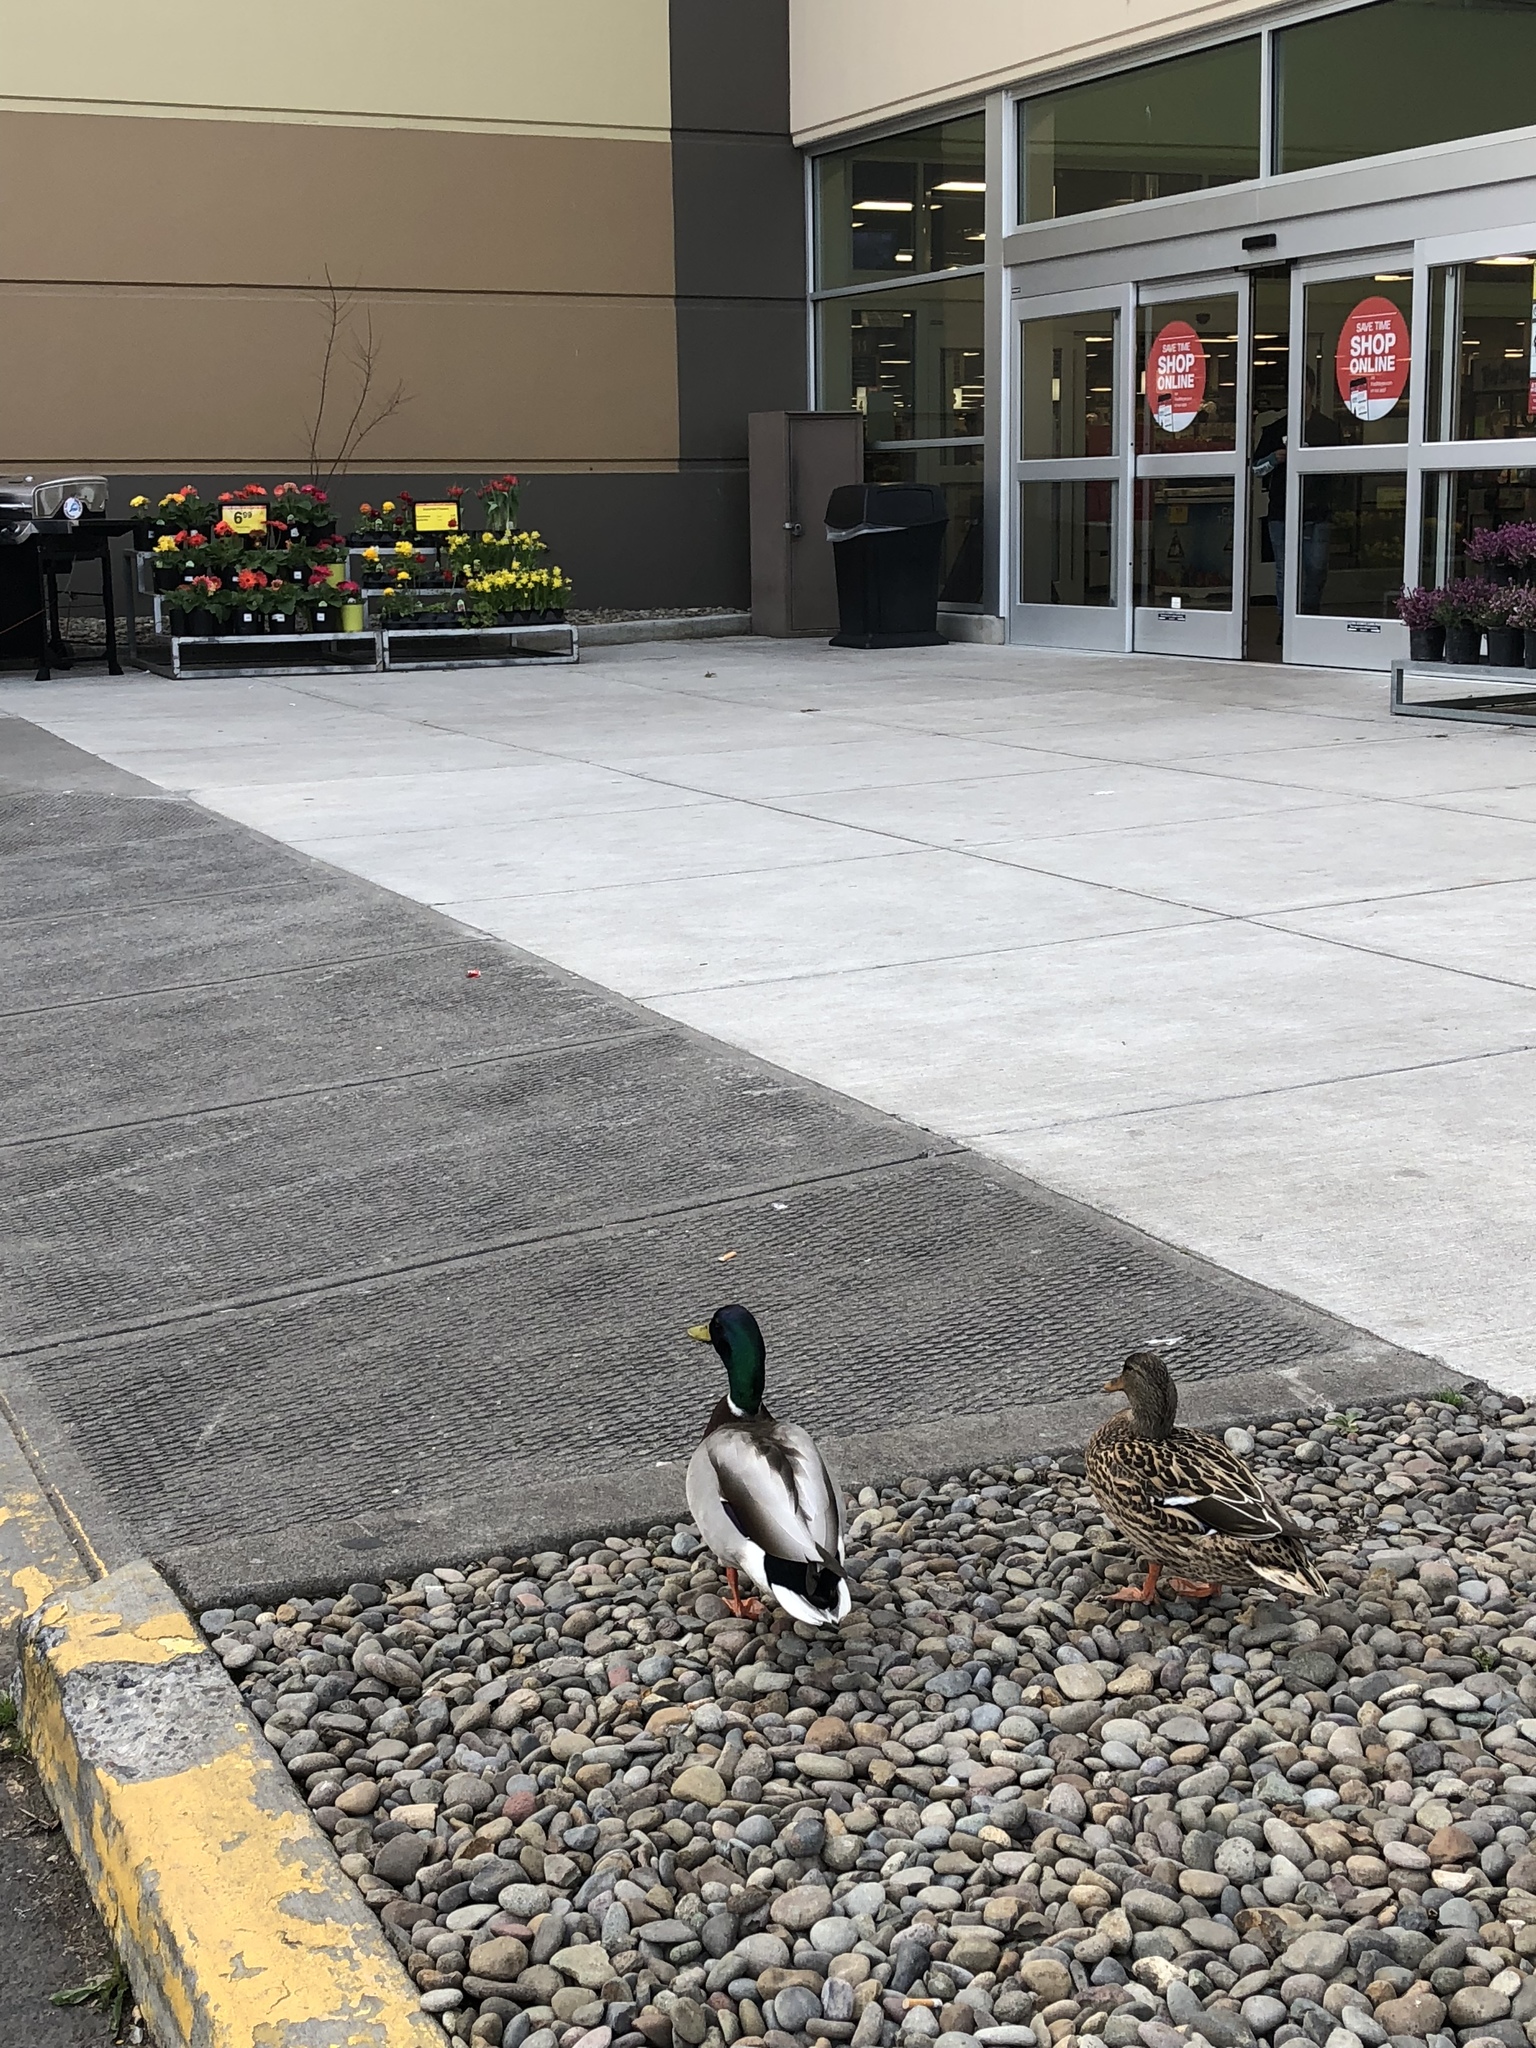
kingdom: Animalia
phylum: Chordata
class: Aves
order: Anseriformes
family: Anatidae
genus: Anas
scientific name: Anas platyrhynchos
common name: Mallard
